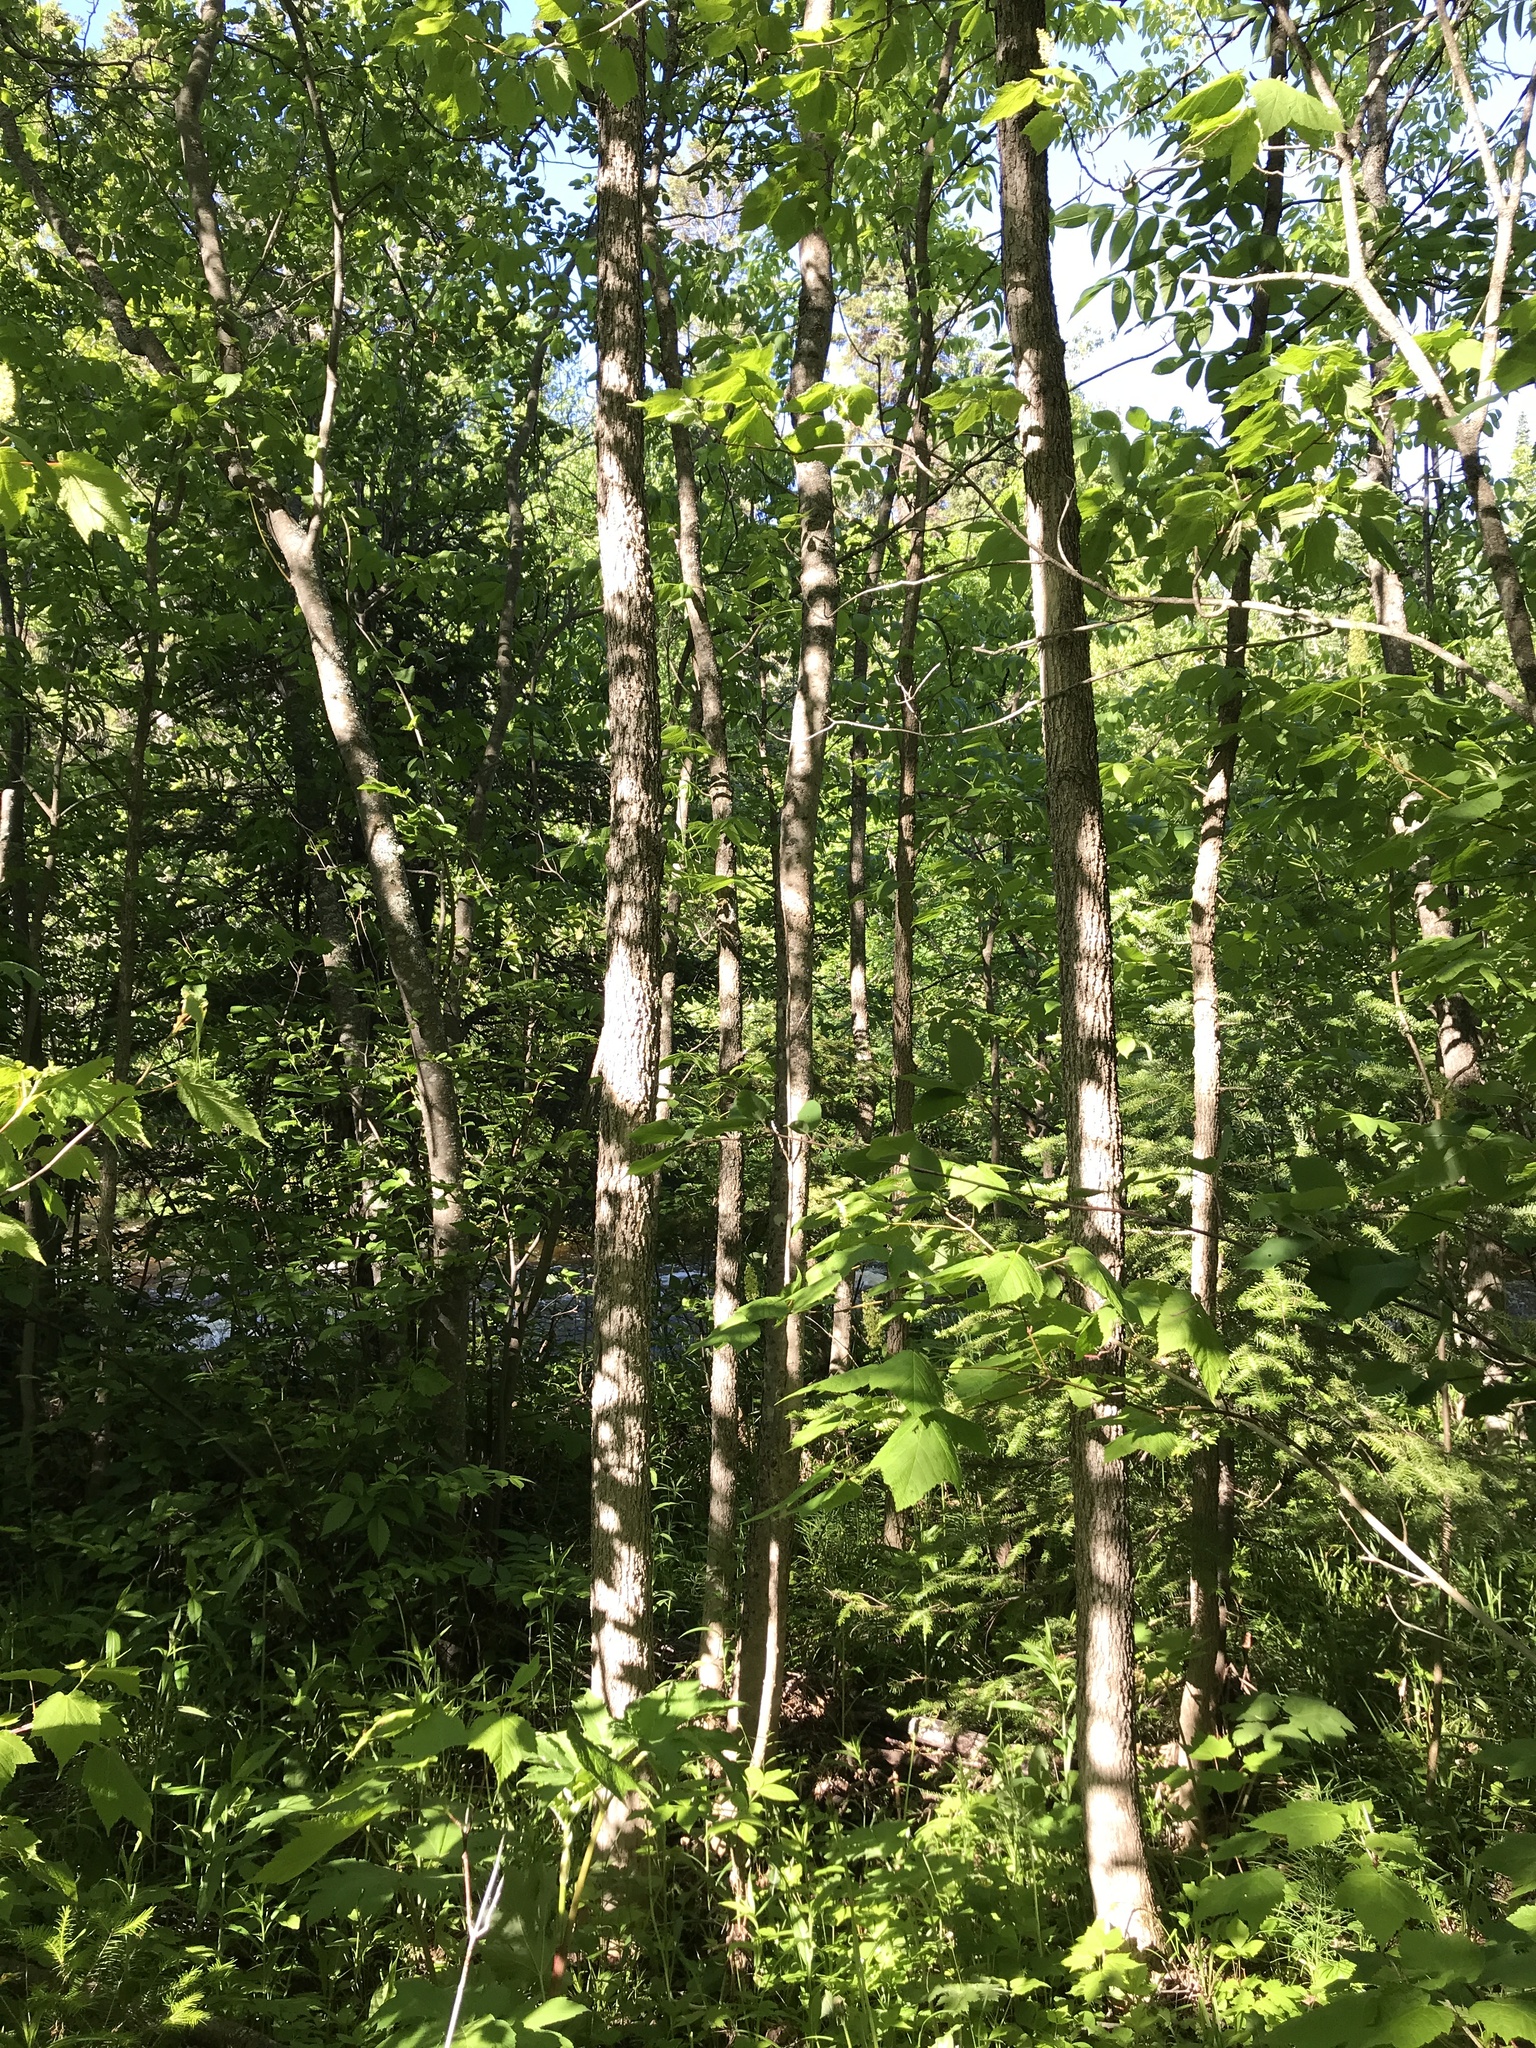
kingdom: Plantae
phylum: Tracheophyta
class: Magnoliopsida
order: Lamiales
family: Oleaceae
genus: Fraxinus
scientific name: Fraxinus nigra
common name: Black ash
